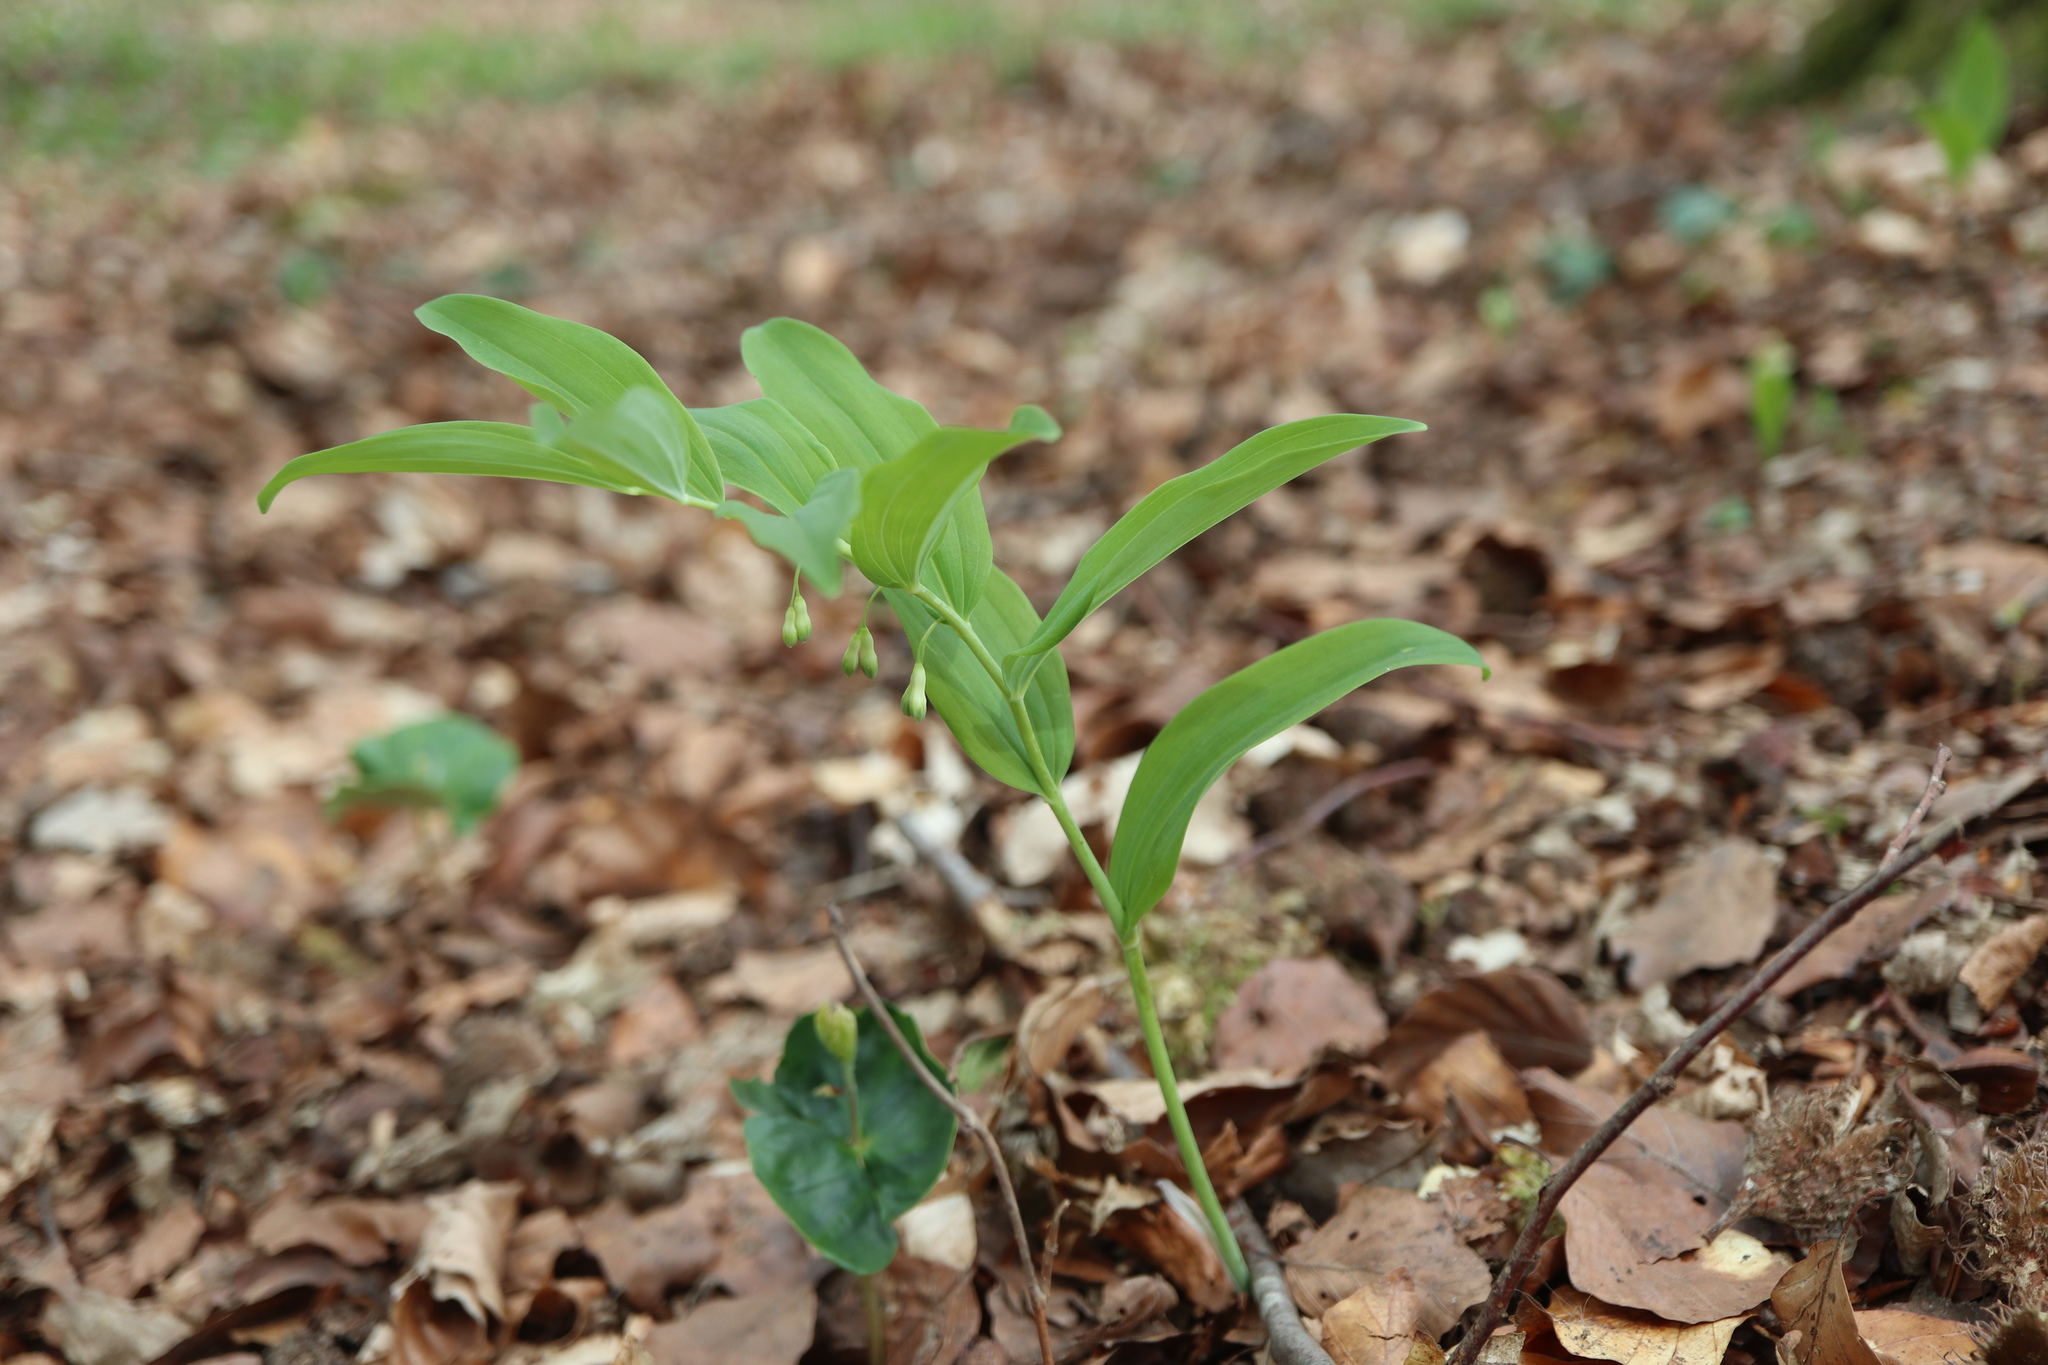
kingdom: Plantae
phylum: Tracheophyta
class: Liliopsida
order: Asparagales
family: Asparagaceae
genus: Polygonatum
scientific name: Polygonatum multiflorum
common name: Solomon's-seal
